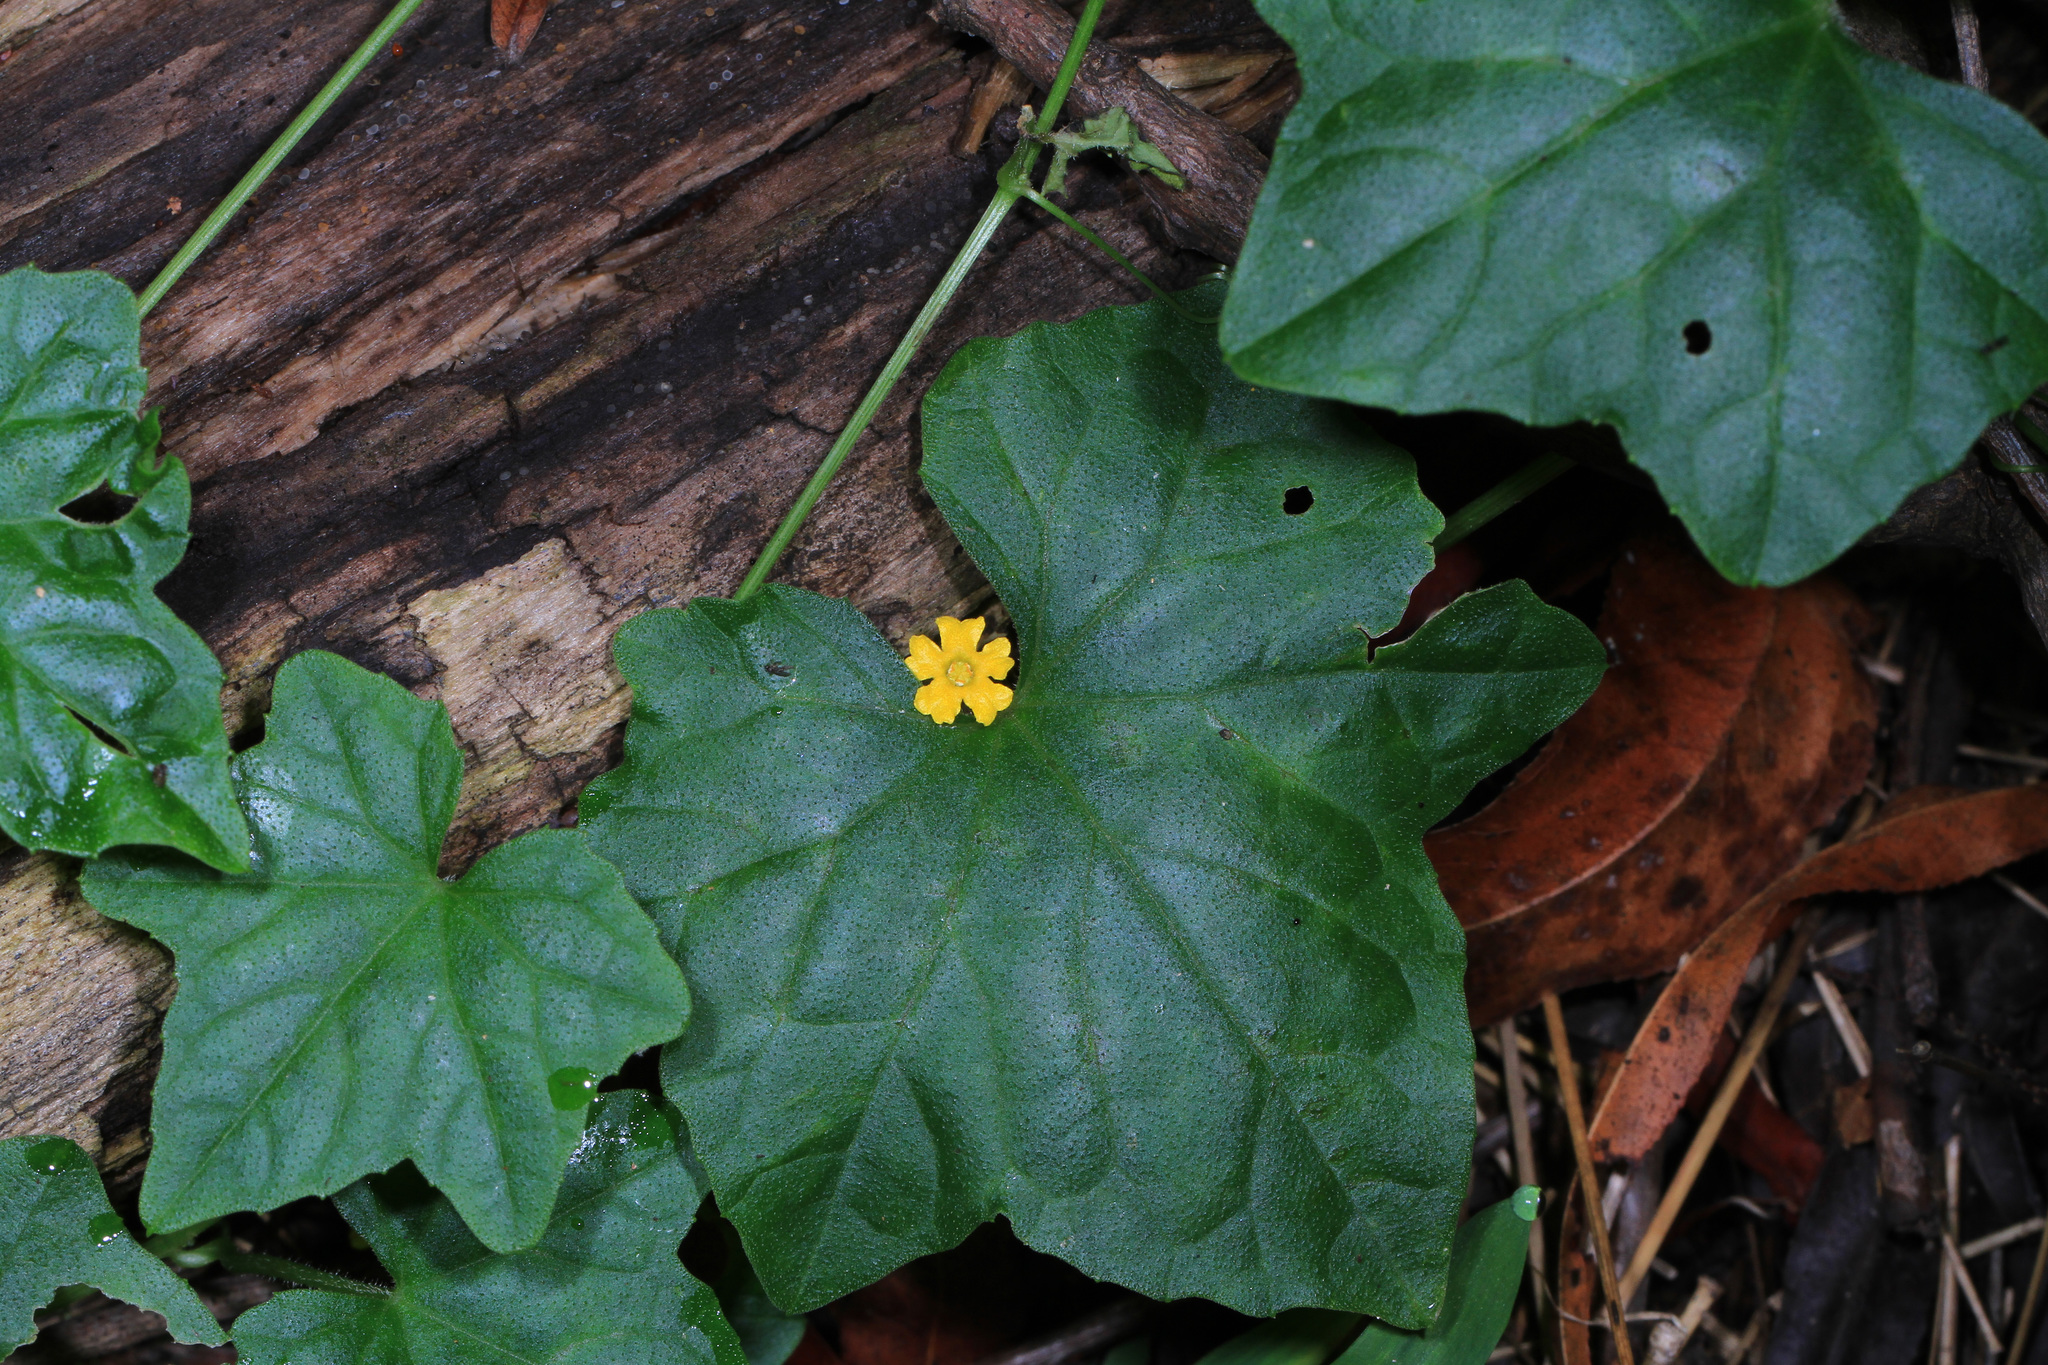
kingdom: Plantae
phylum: Tracheophyta
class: Magnoliopsida
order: Cucurbitales
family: Cucurbitaceae
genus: Melothria
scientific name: Melothria pendula
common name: Creeping-cucumber
